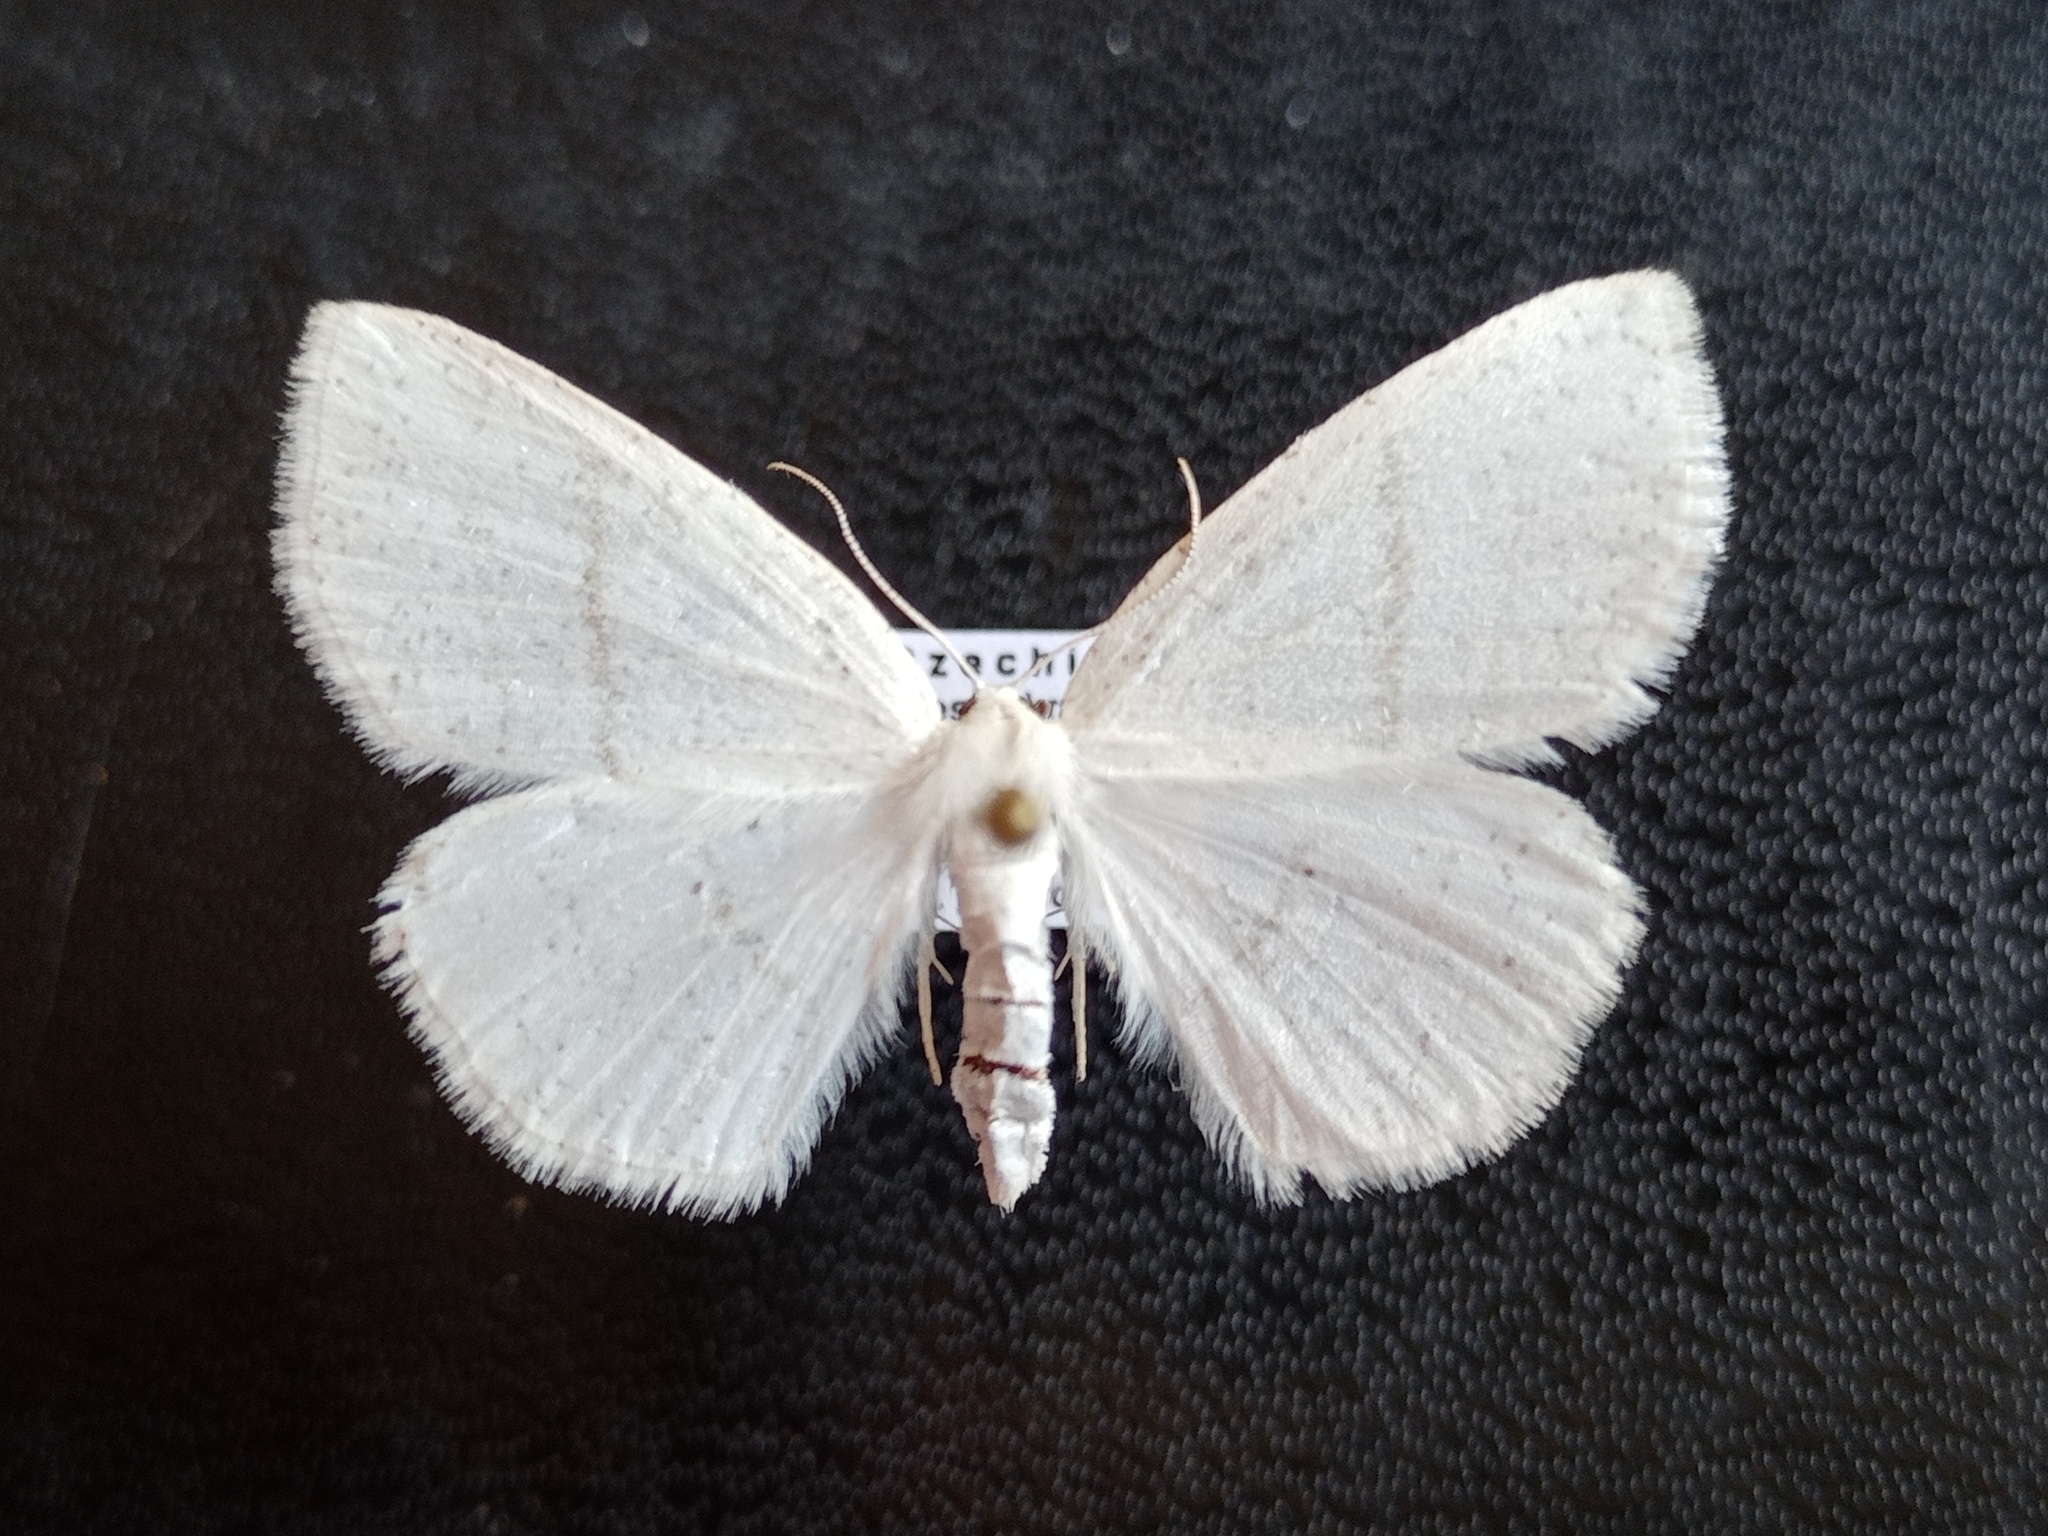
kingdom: Animalia
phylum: Arthropoda
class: Insecta
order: Lepidoptera
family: Geometridae
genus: Cabera
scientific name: Cabera pusaria
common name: Common white wave
